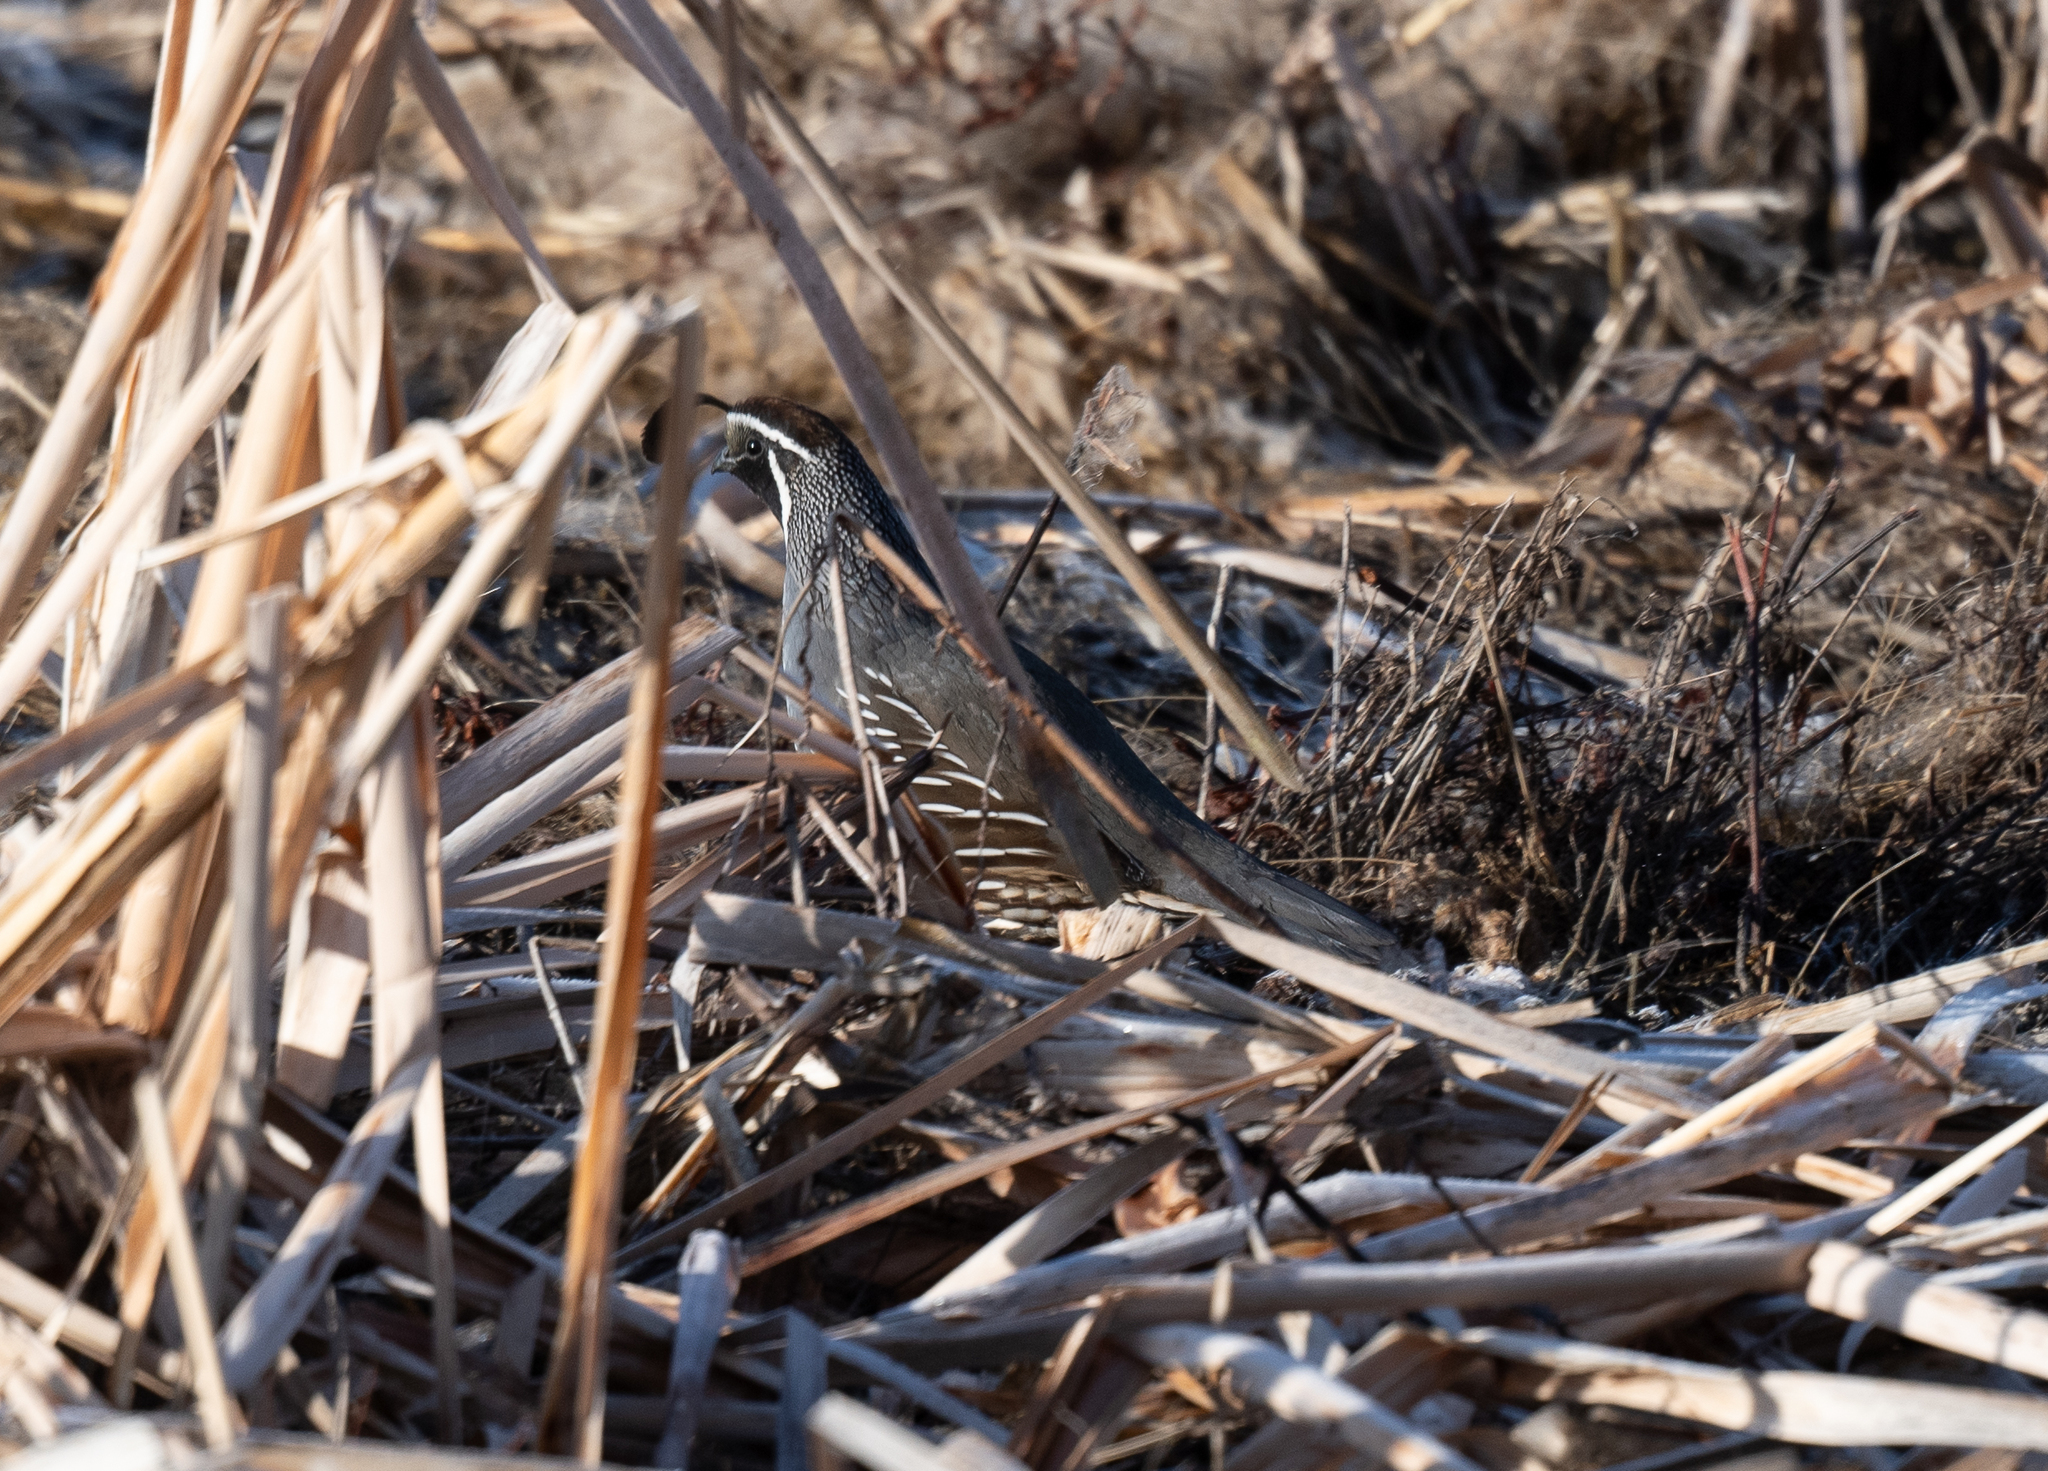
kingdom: Animalia
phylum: Chordata
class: Aves
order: Galliformes
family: Odontophoridae
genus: Callipepla
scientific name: Callipepla californica
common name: California quail
